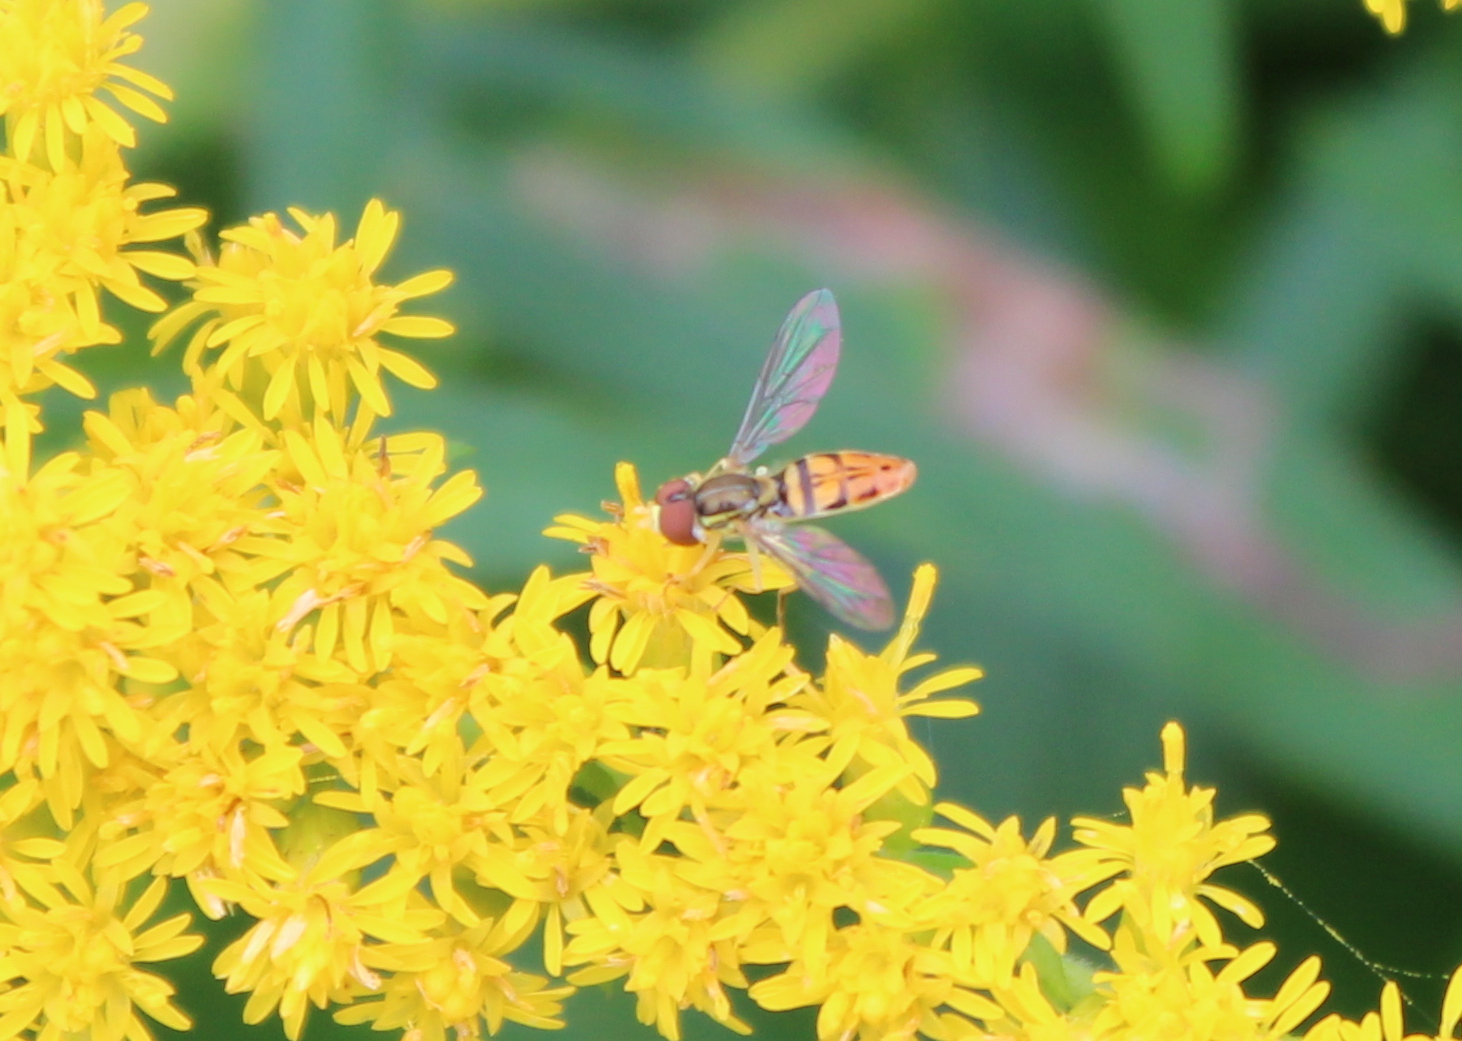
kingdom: Animalia
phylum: Arthropoda
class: Insecta
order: Diptera
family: Syrphidae
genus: Toxomerus
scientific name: Toxomerus marginatus
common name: Syrphid fly
